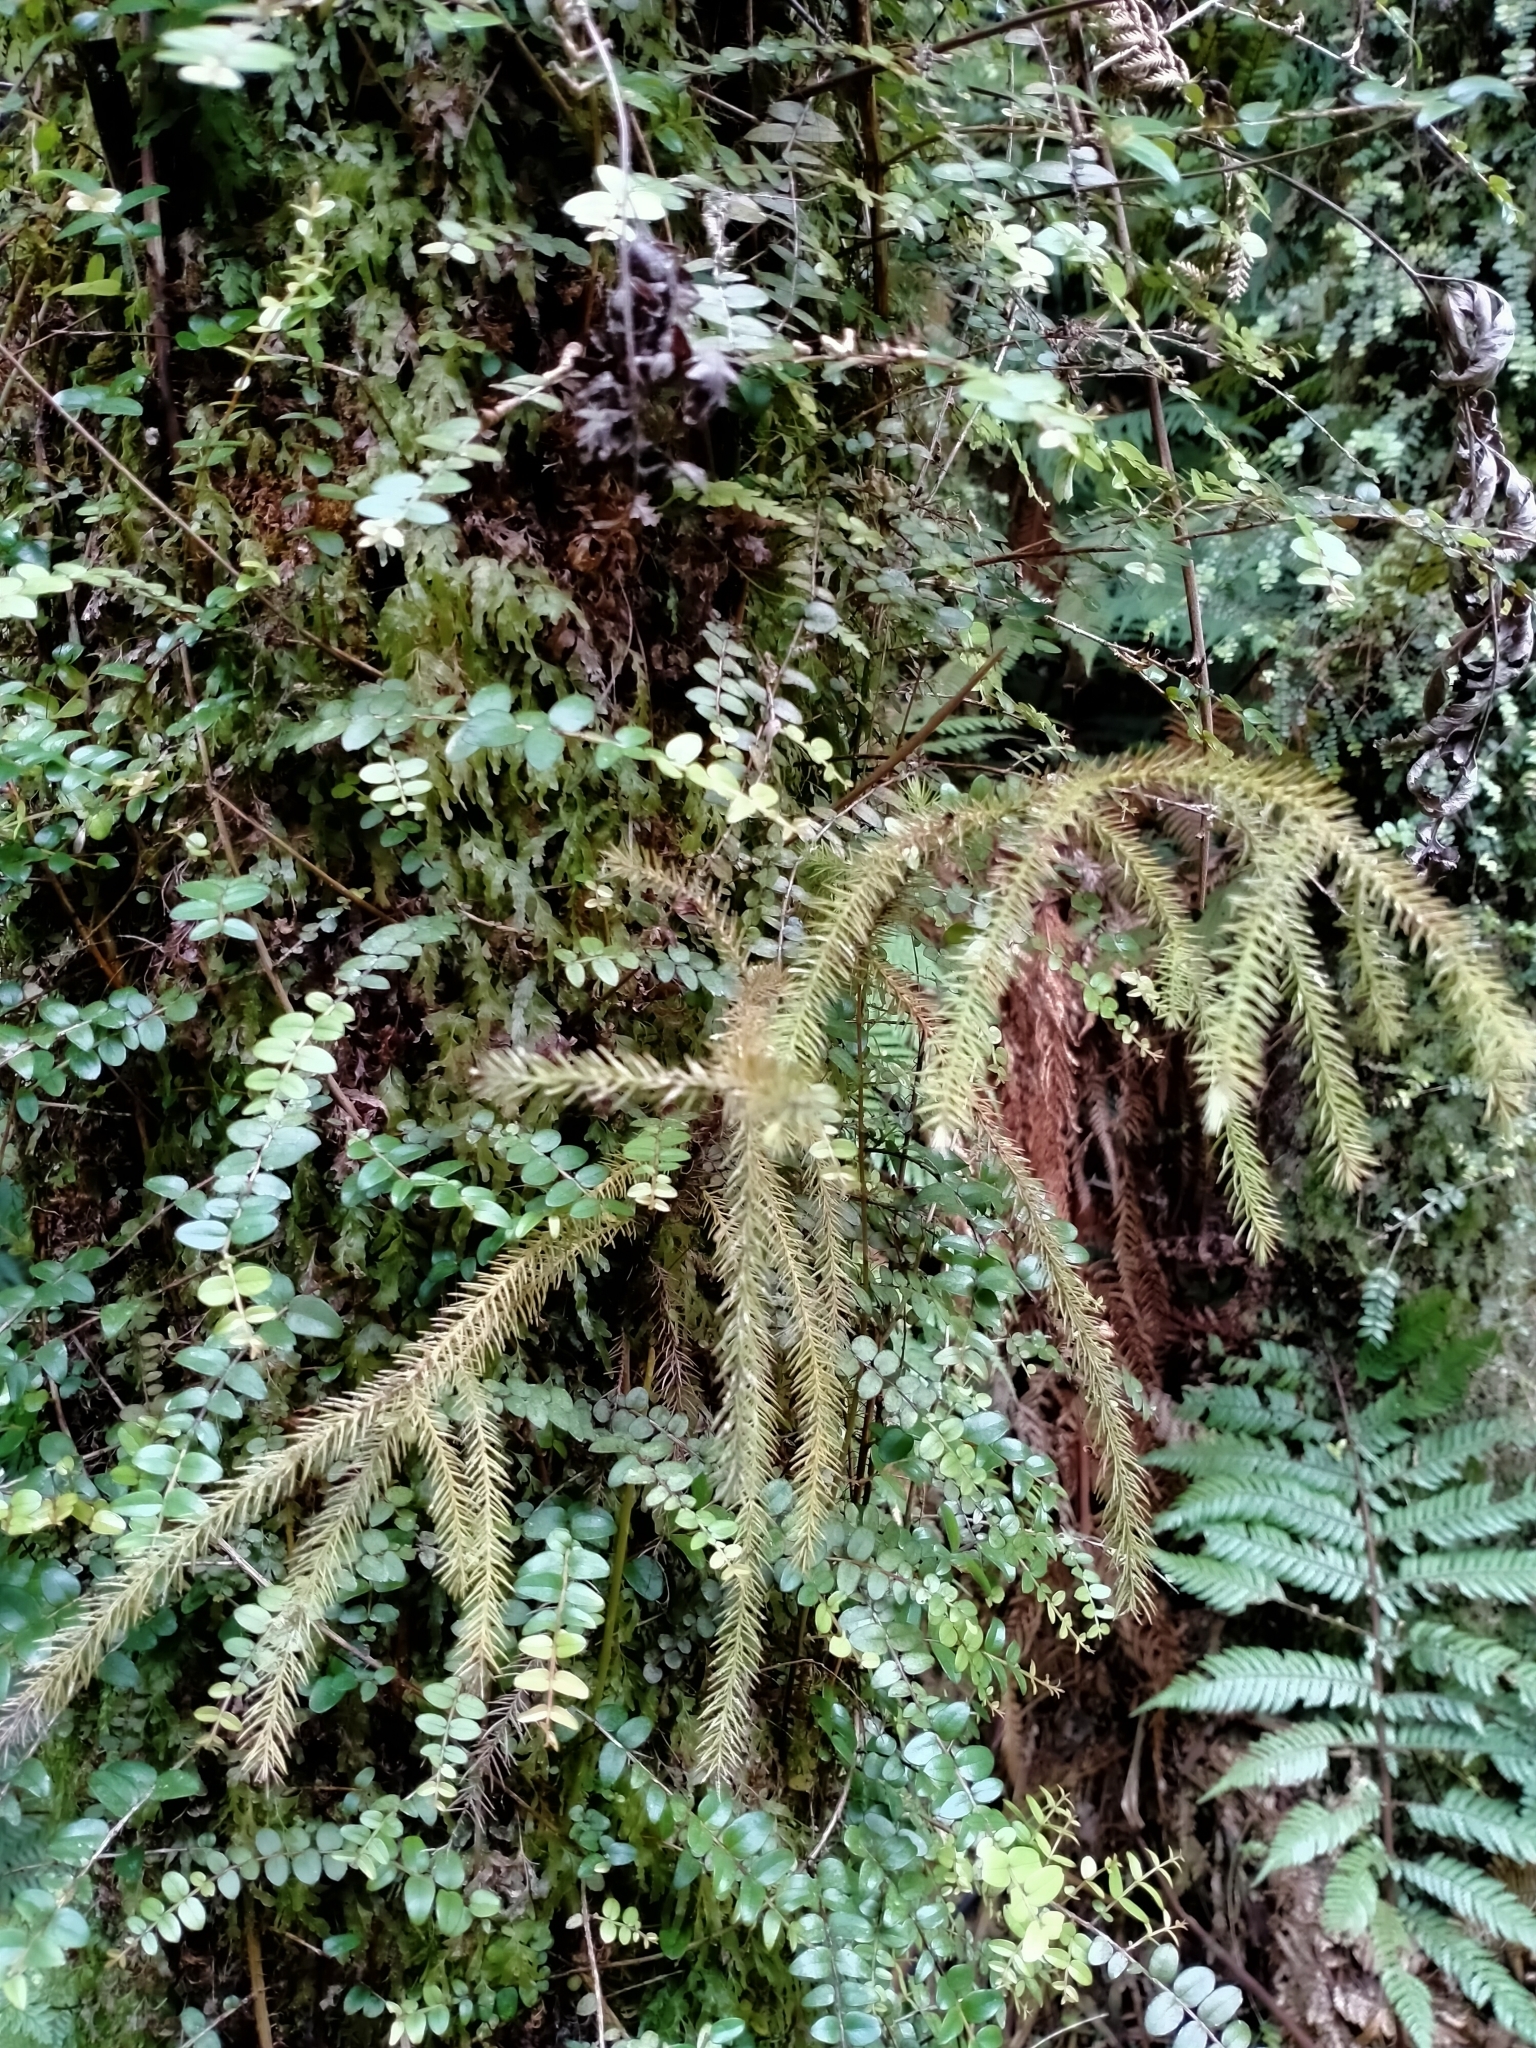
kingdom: Plantae
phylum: Tracheophyta
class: Pinopsida
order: Pinales
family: Podocarpaceae
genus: Dacrydium
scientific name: Dacrydium cupressinum
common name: Red pine
